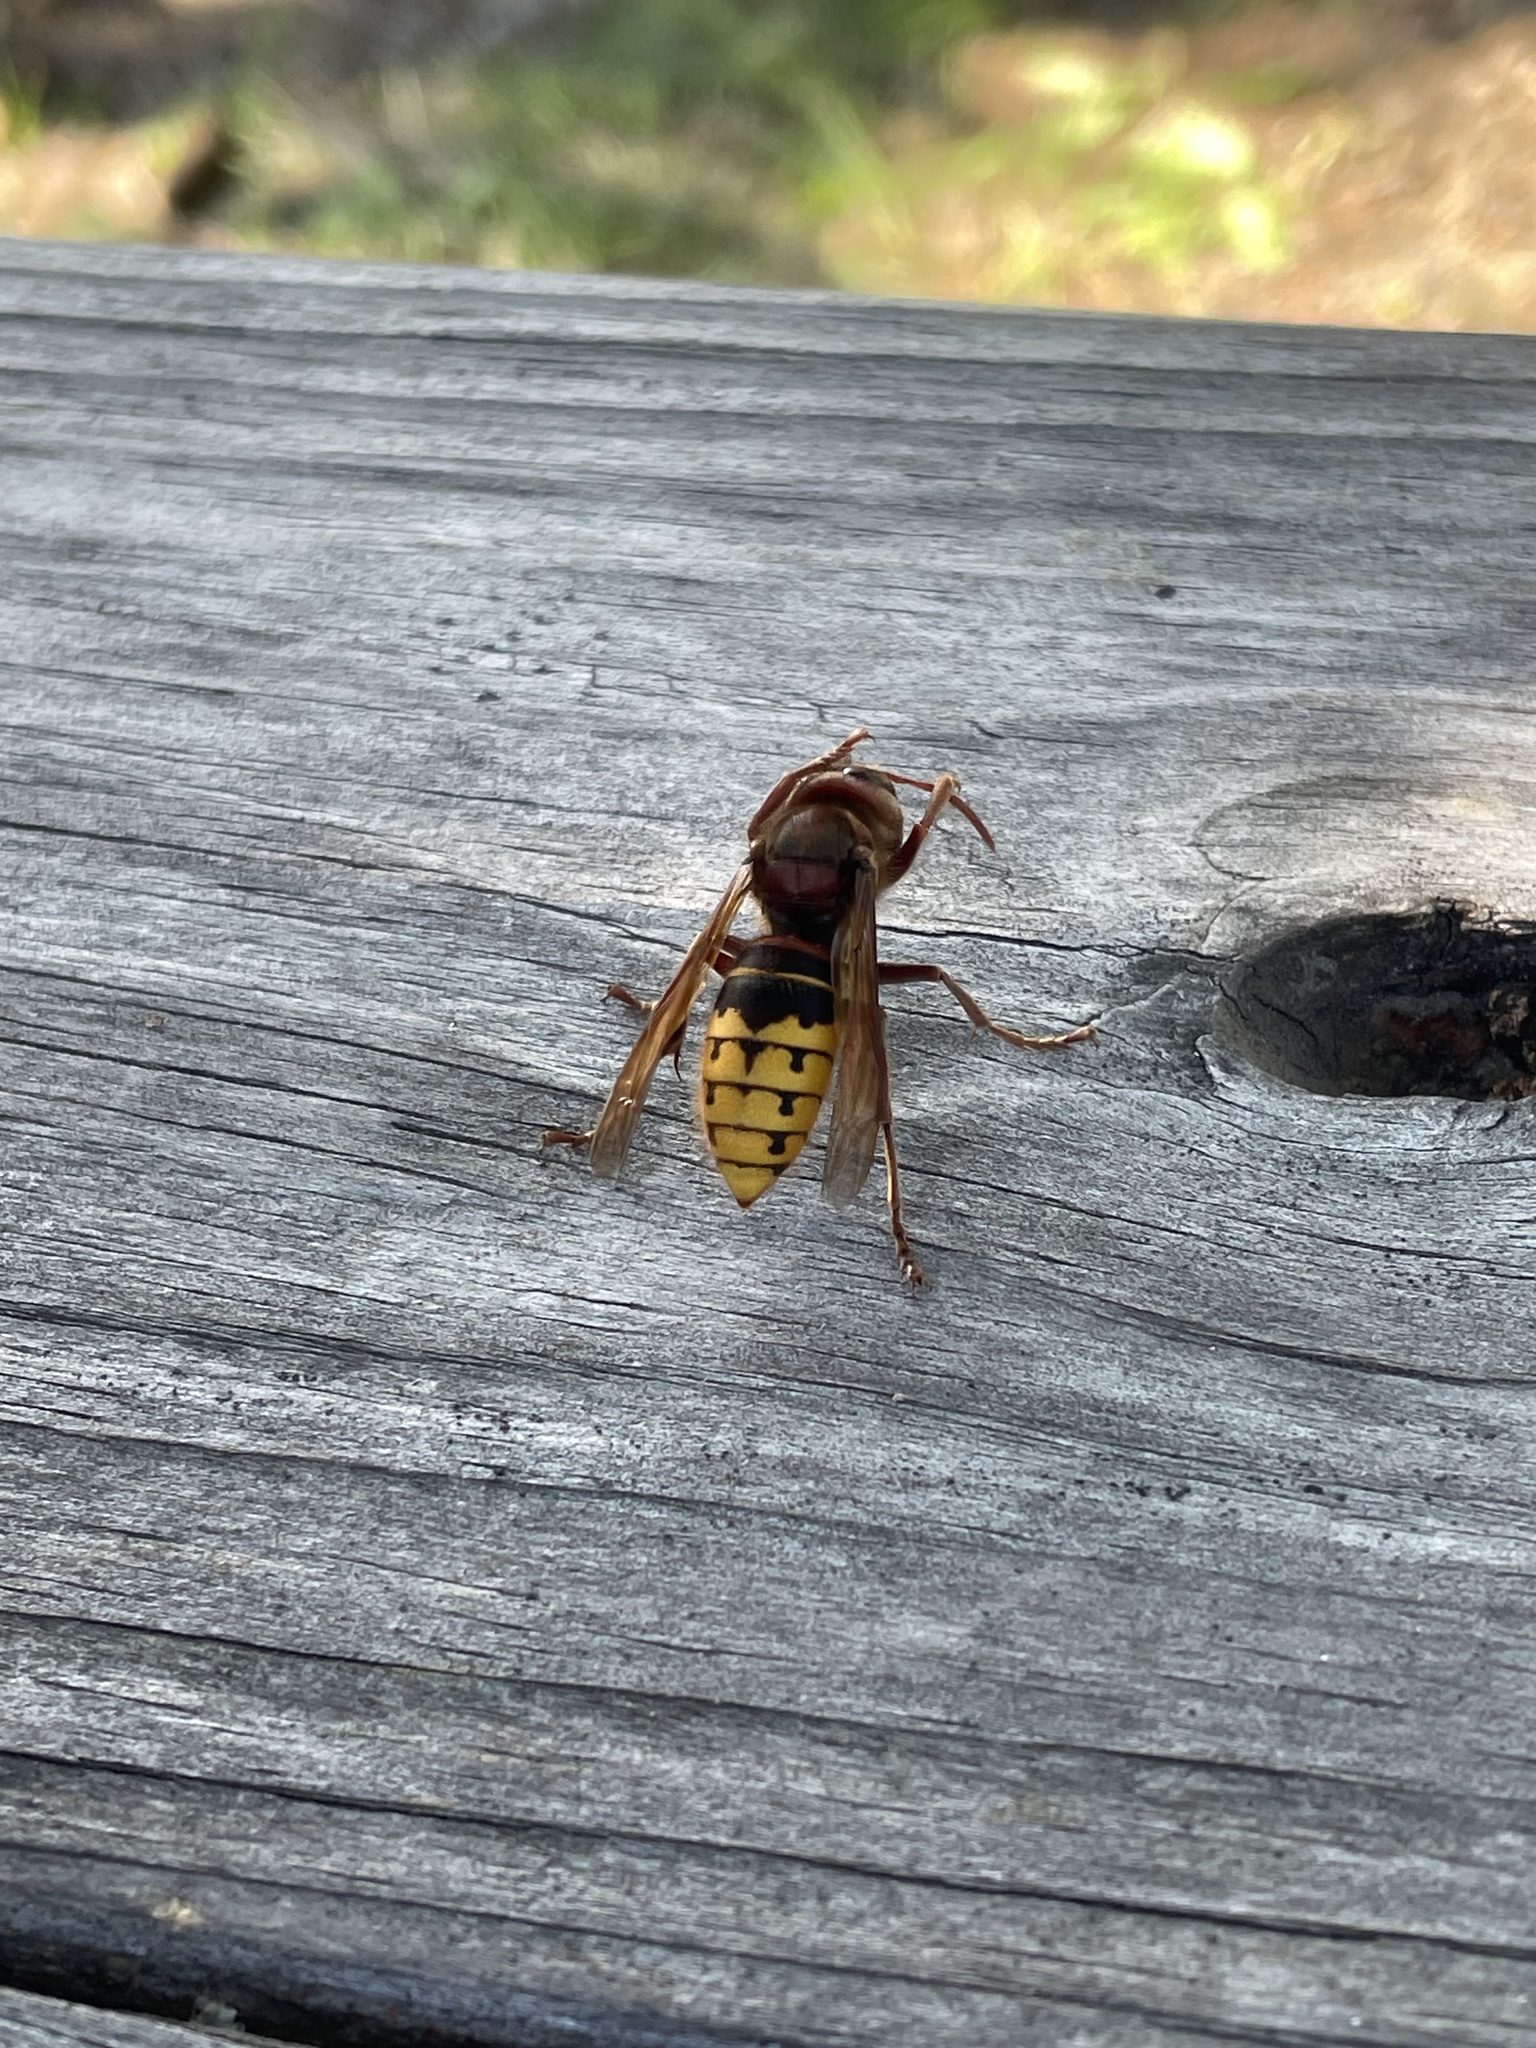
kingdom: Animalia
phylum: Arthropoda
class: Insecta
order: Hymenoptera
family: Vespidae
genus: Vespa
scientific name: Vespa crabro
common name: Hornet
